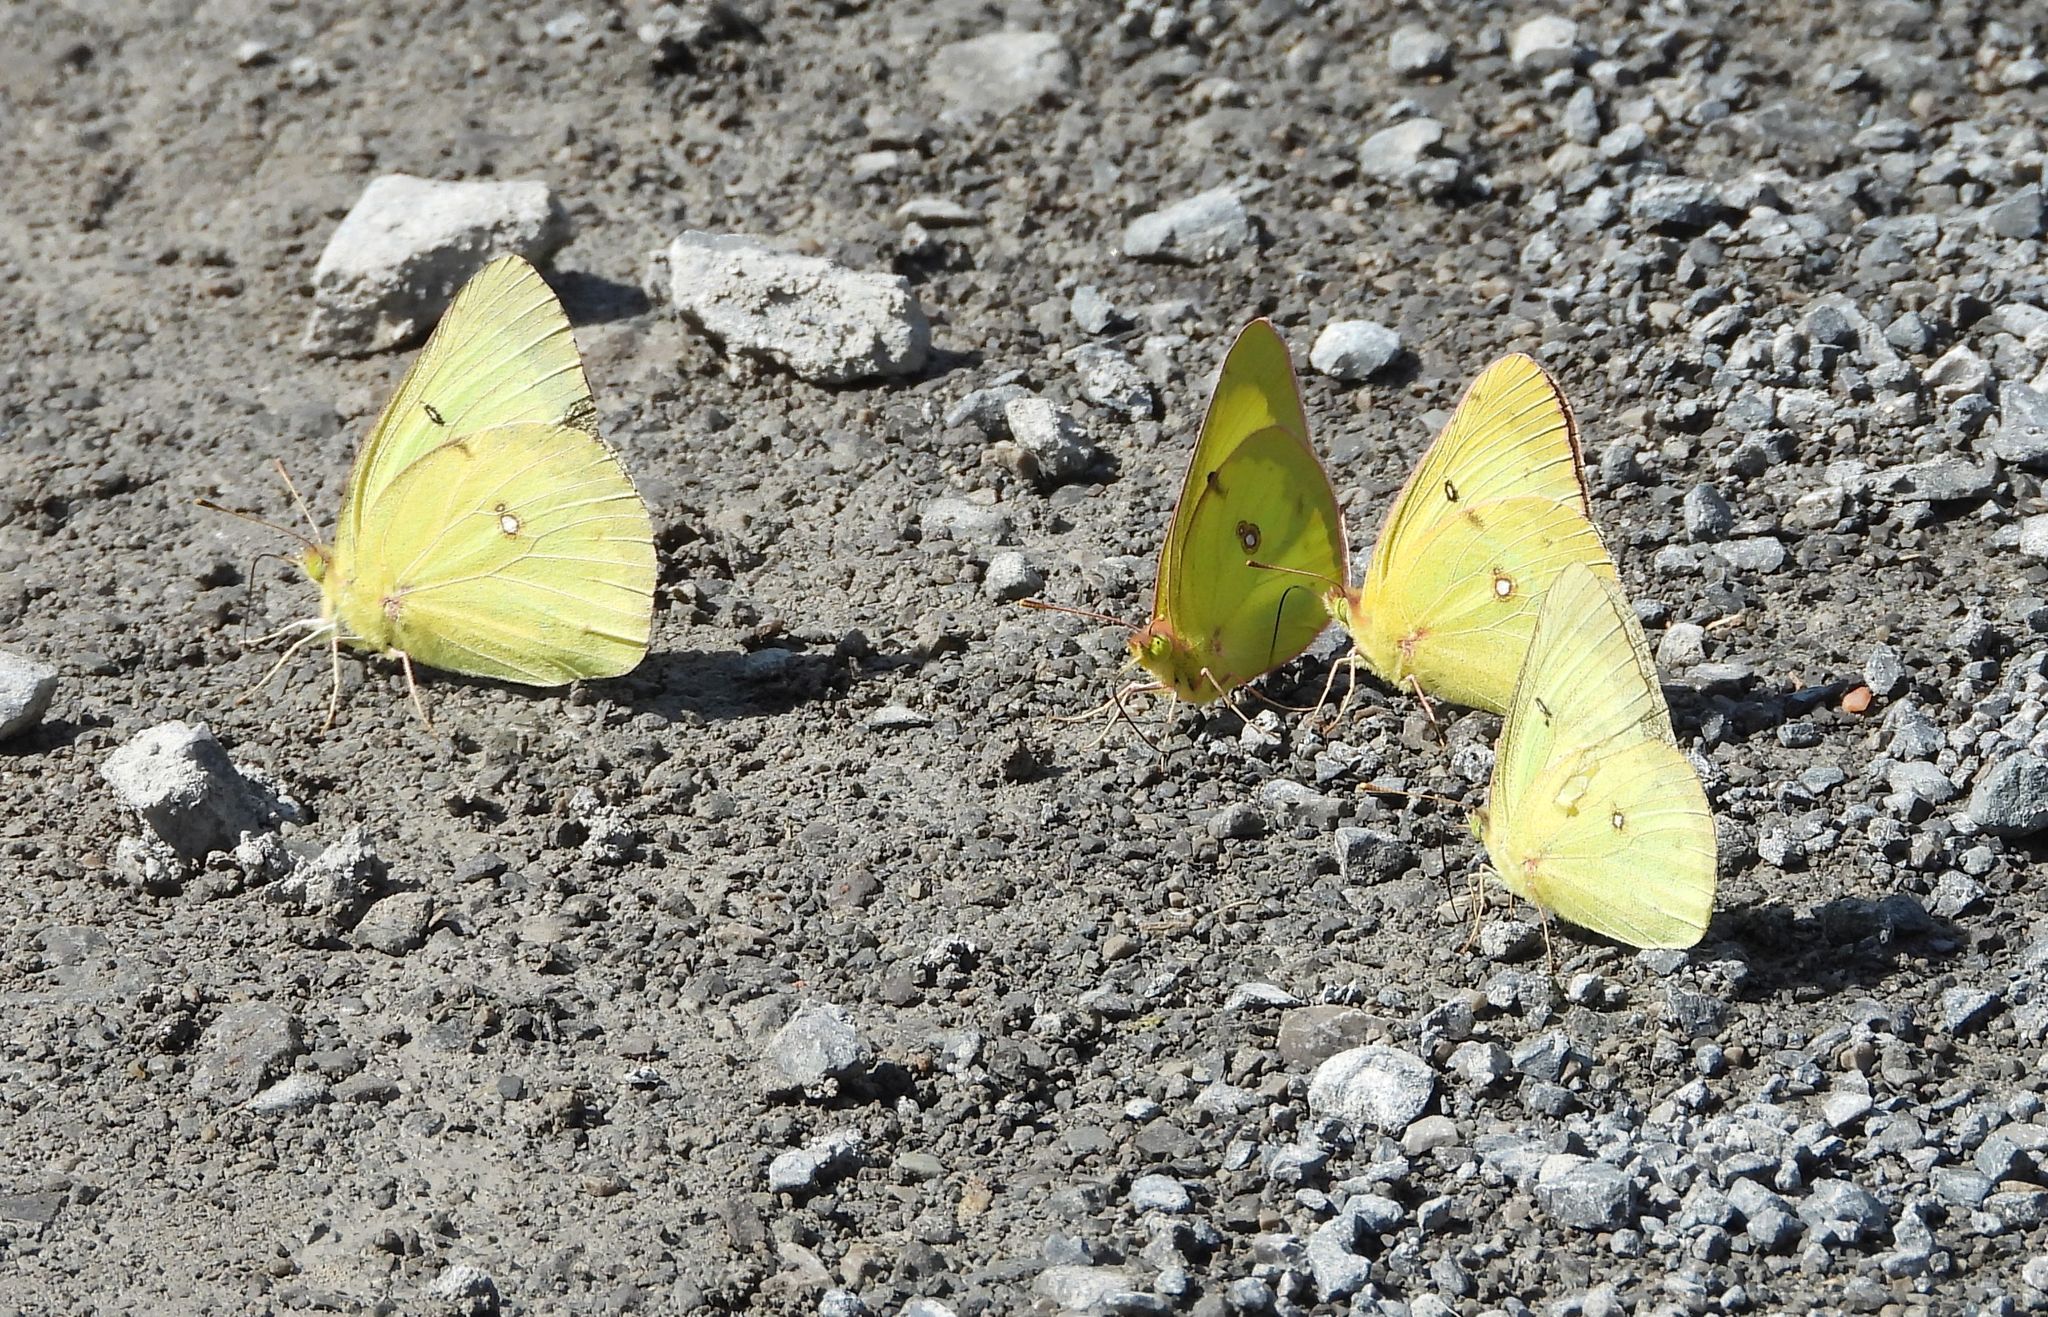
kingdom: Animalia
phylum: Arthropoda
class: Insecta
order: Lepidoptera
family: Pieridae
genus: Colias
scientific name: Colias philodice
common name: Clouded sulphur
